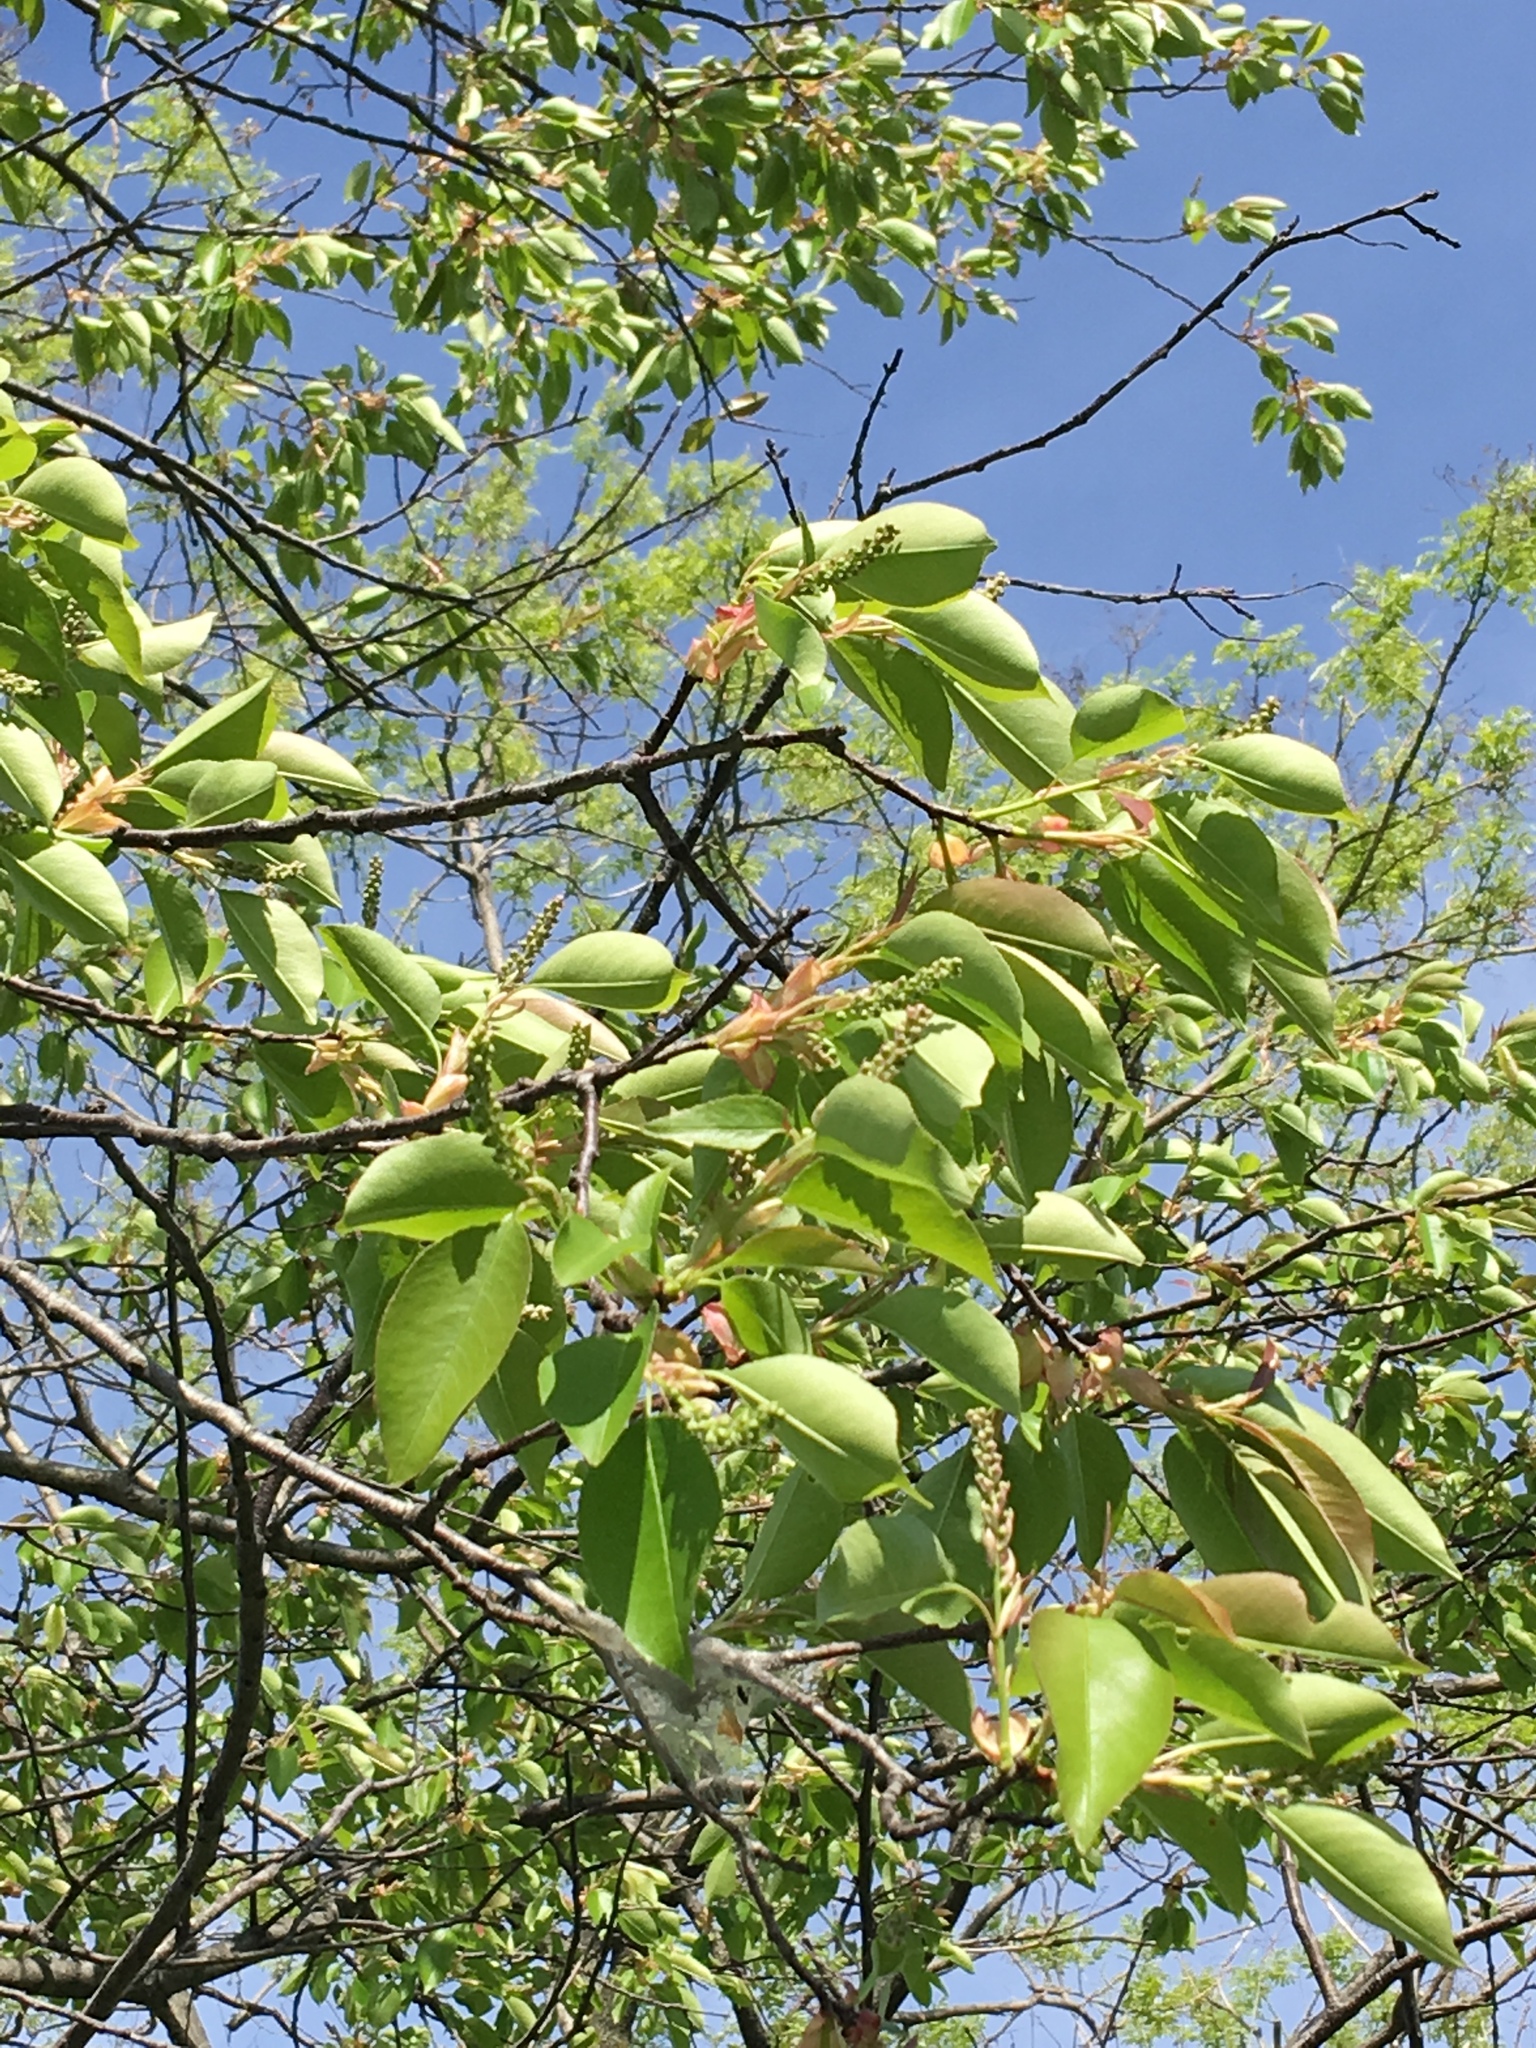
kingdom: Plantae
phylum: Tracheophyta
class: Magnoliopsida
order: Rosales
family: Rosaceae
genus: Prunus
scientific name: Prunus serotina
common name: Black cherry
